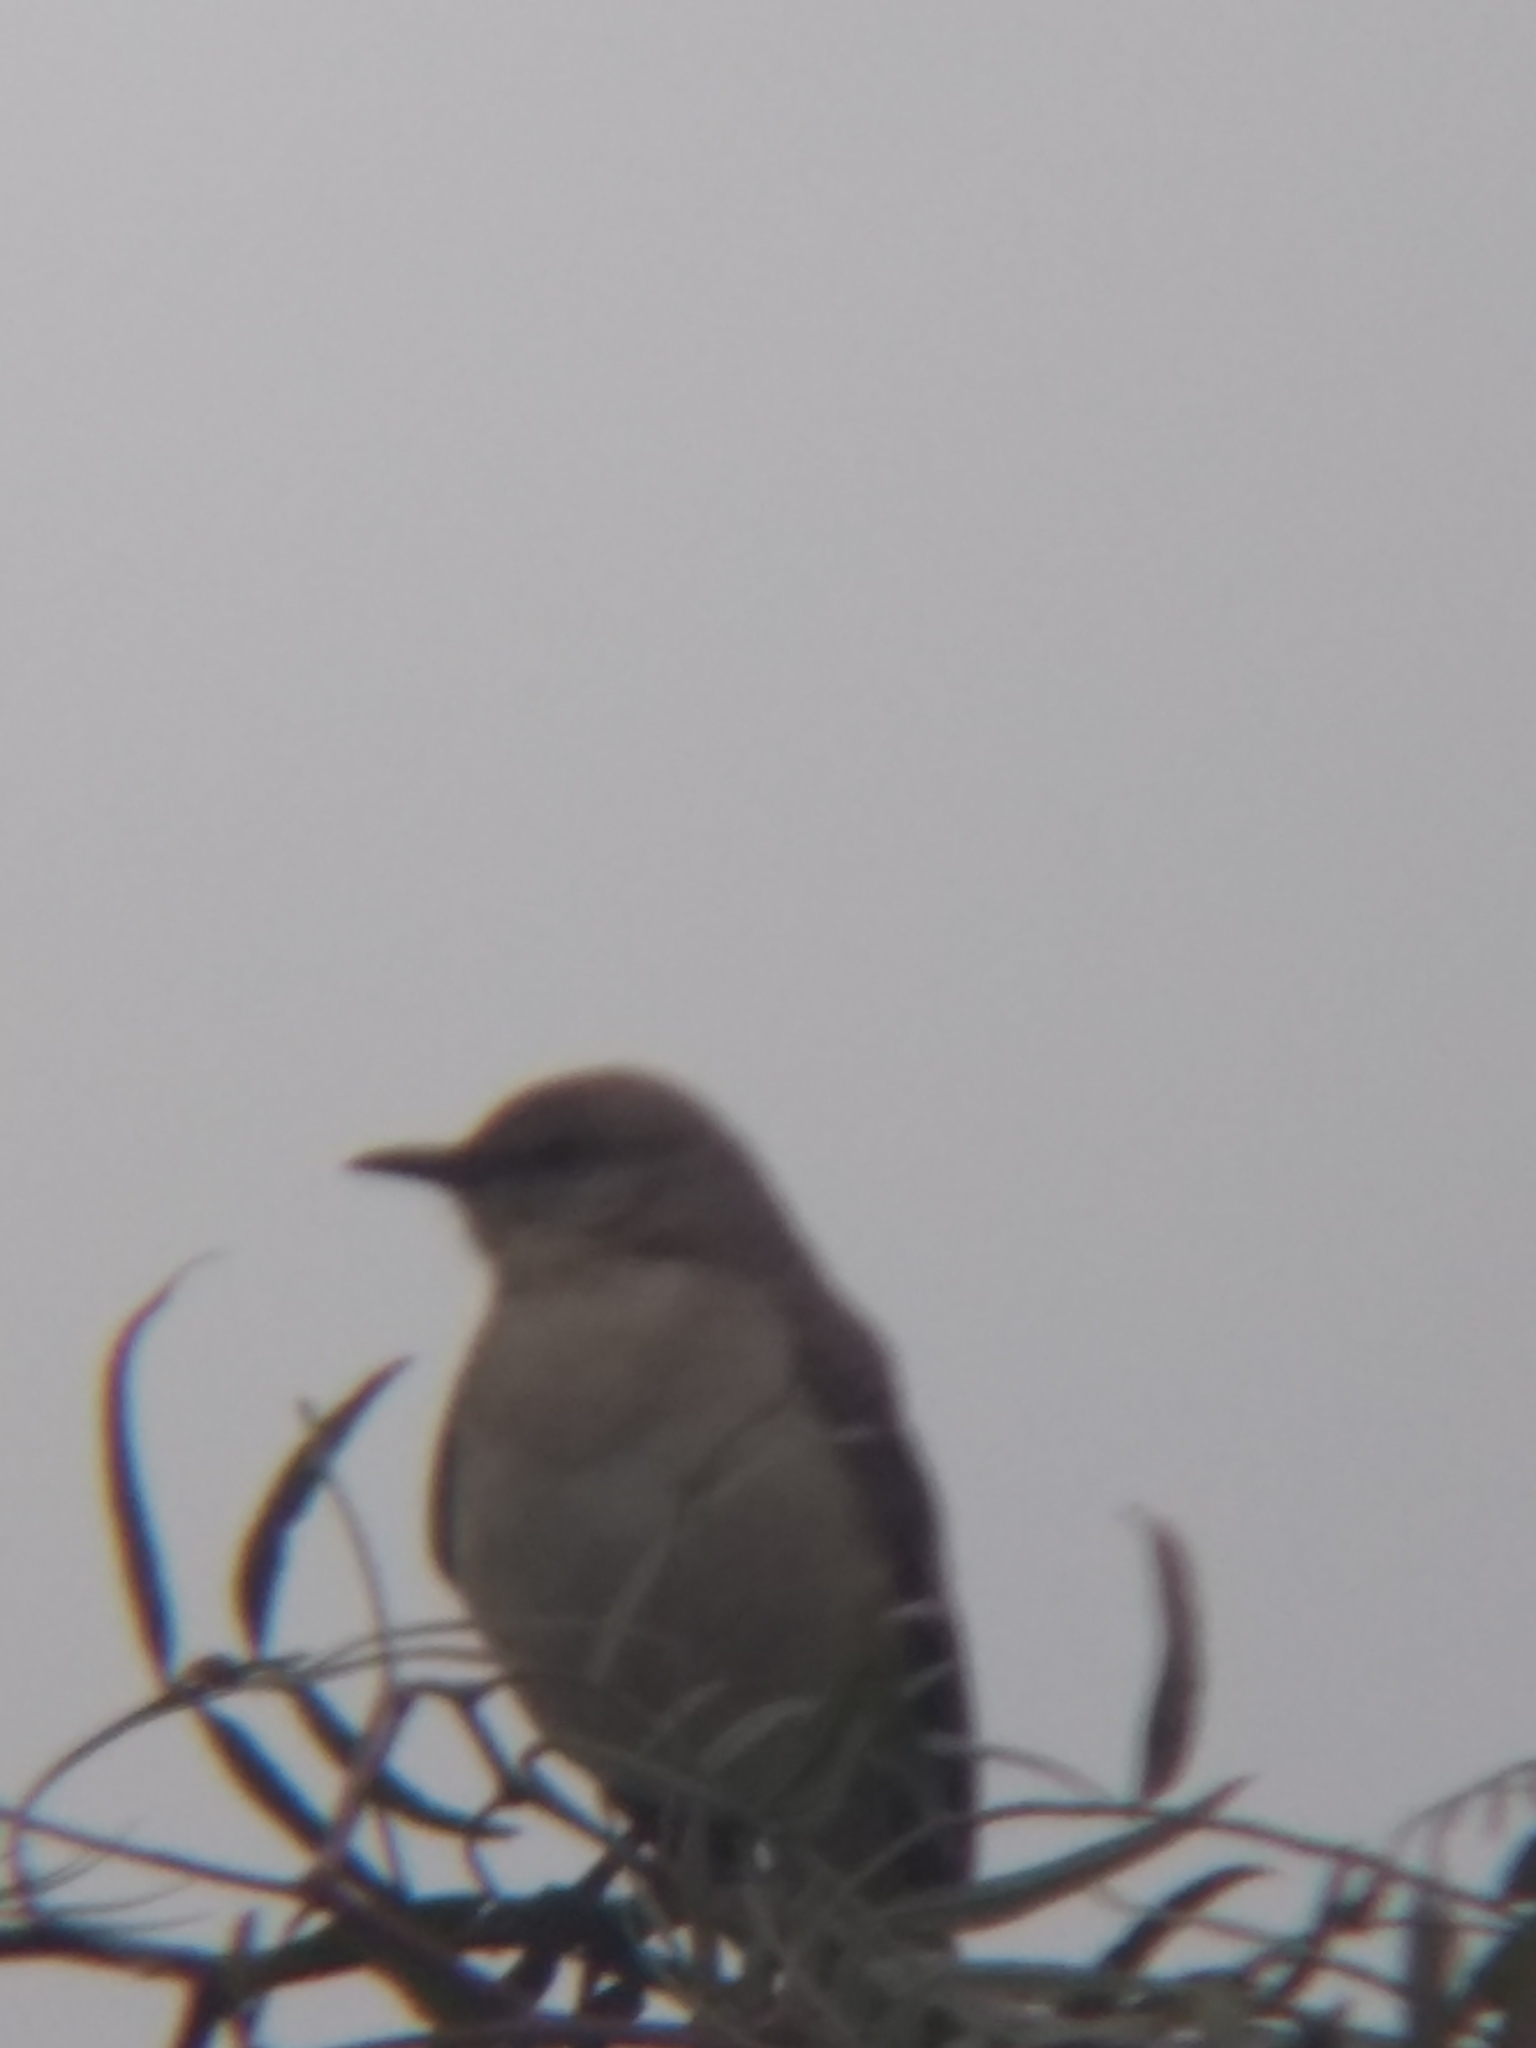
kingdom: Animalia
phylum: Chordata
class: Aves
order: Passeriformes
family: Mimidae
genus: Mimus
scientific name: Mimus polyglottos
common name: Northern mockingbird
